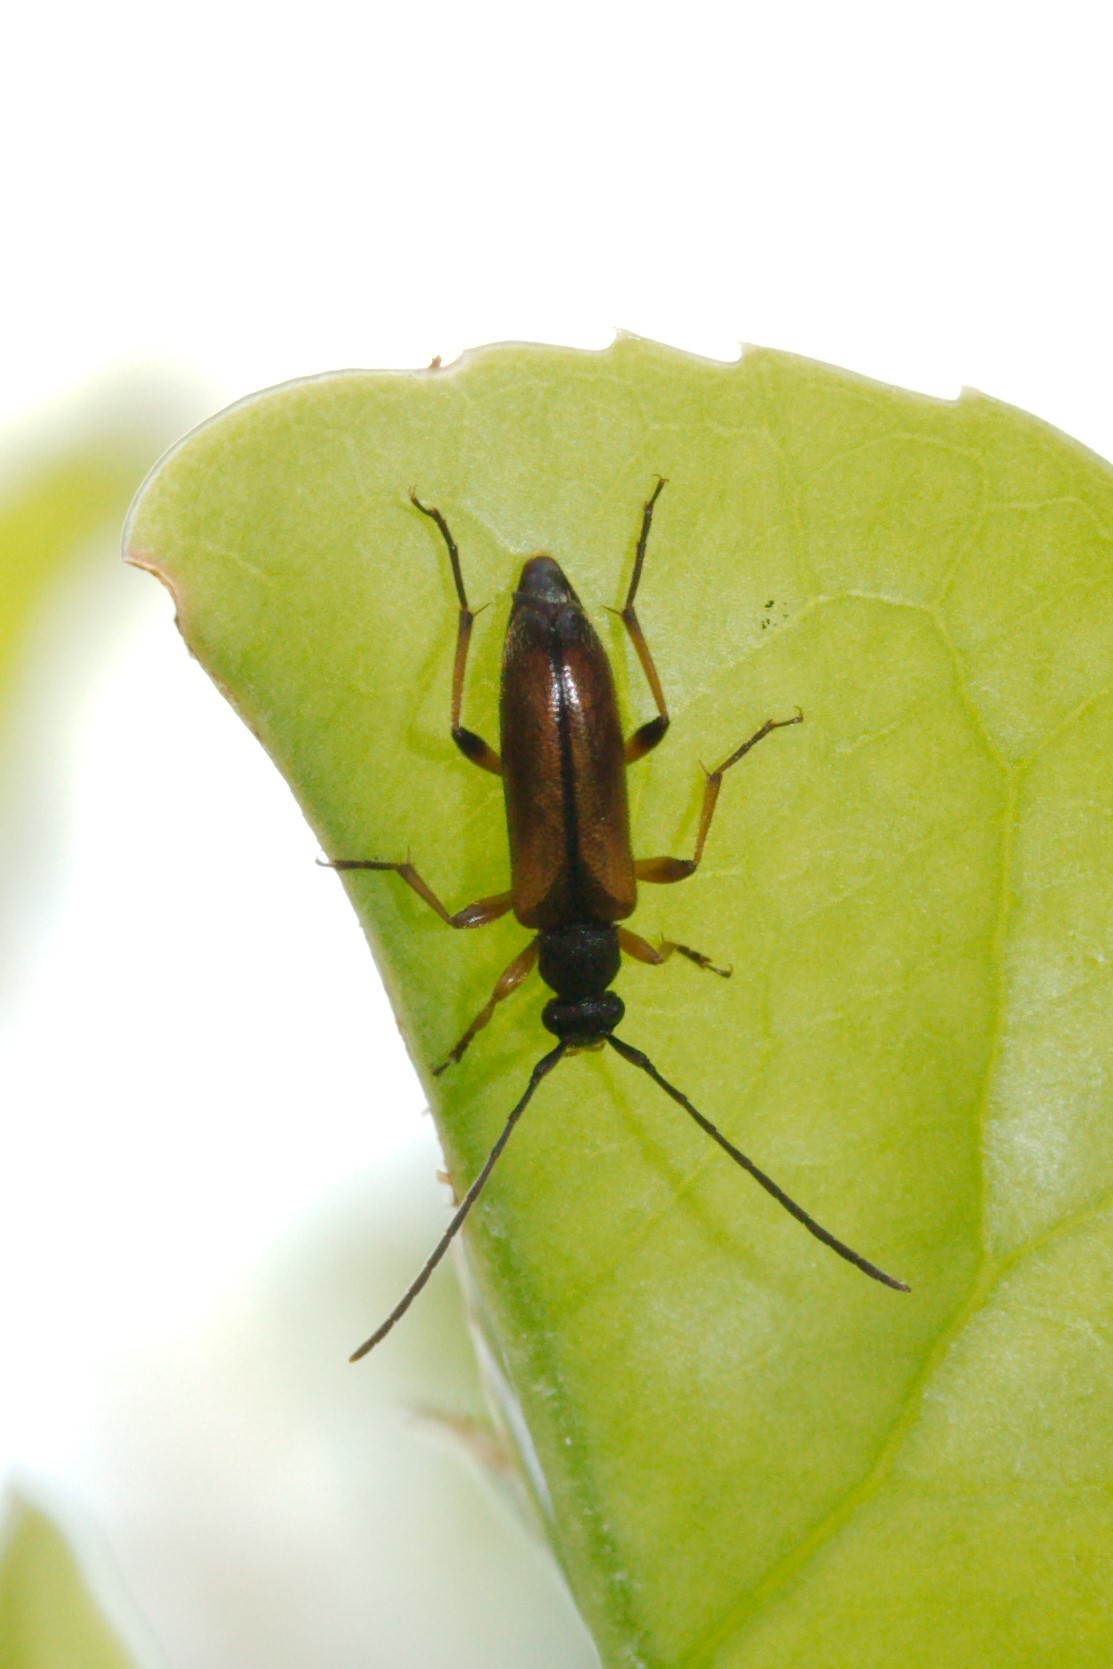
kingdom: Animalia
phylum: Arthropoda
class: Insecta
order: Coleoptera
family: Cerambycidae
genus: Alosterna
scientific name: Alosterna tabacicolor
